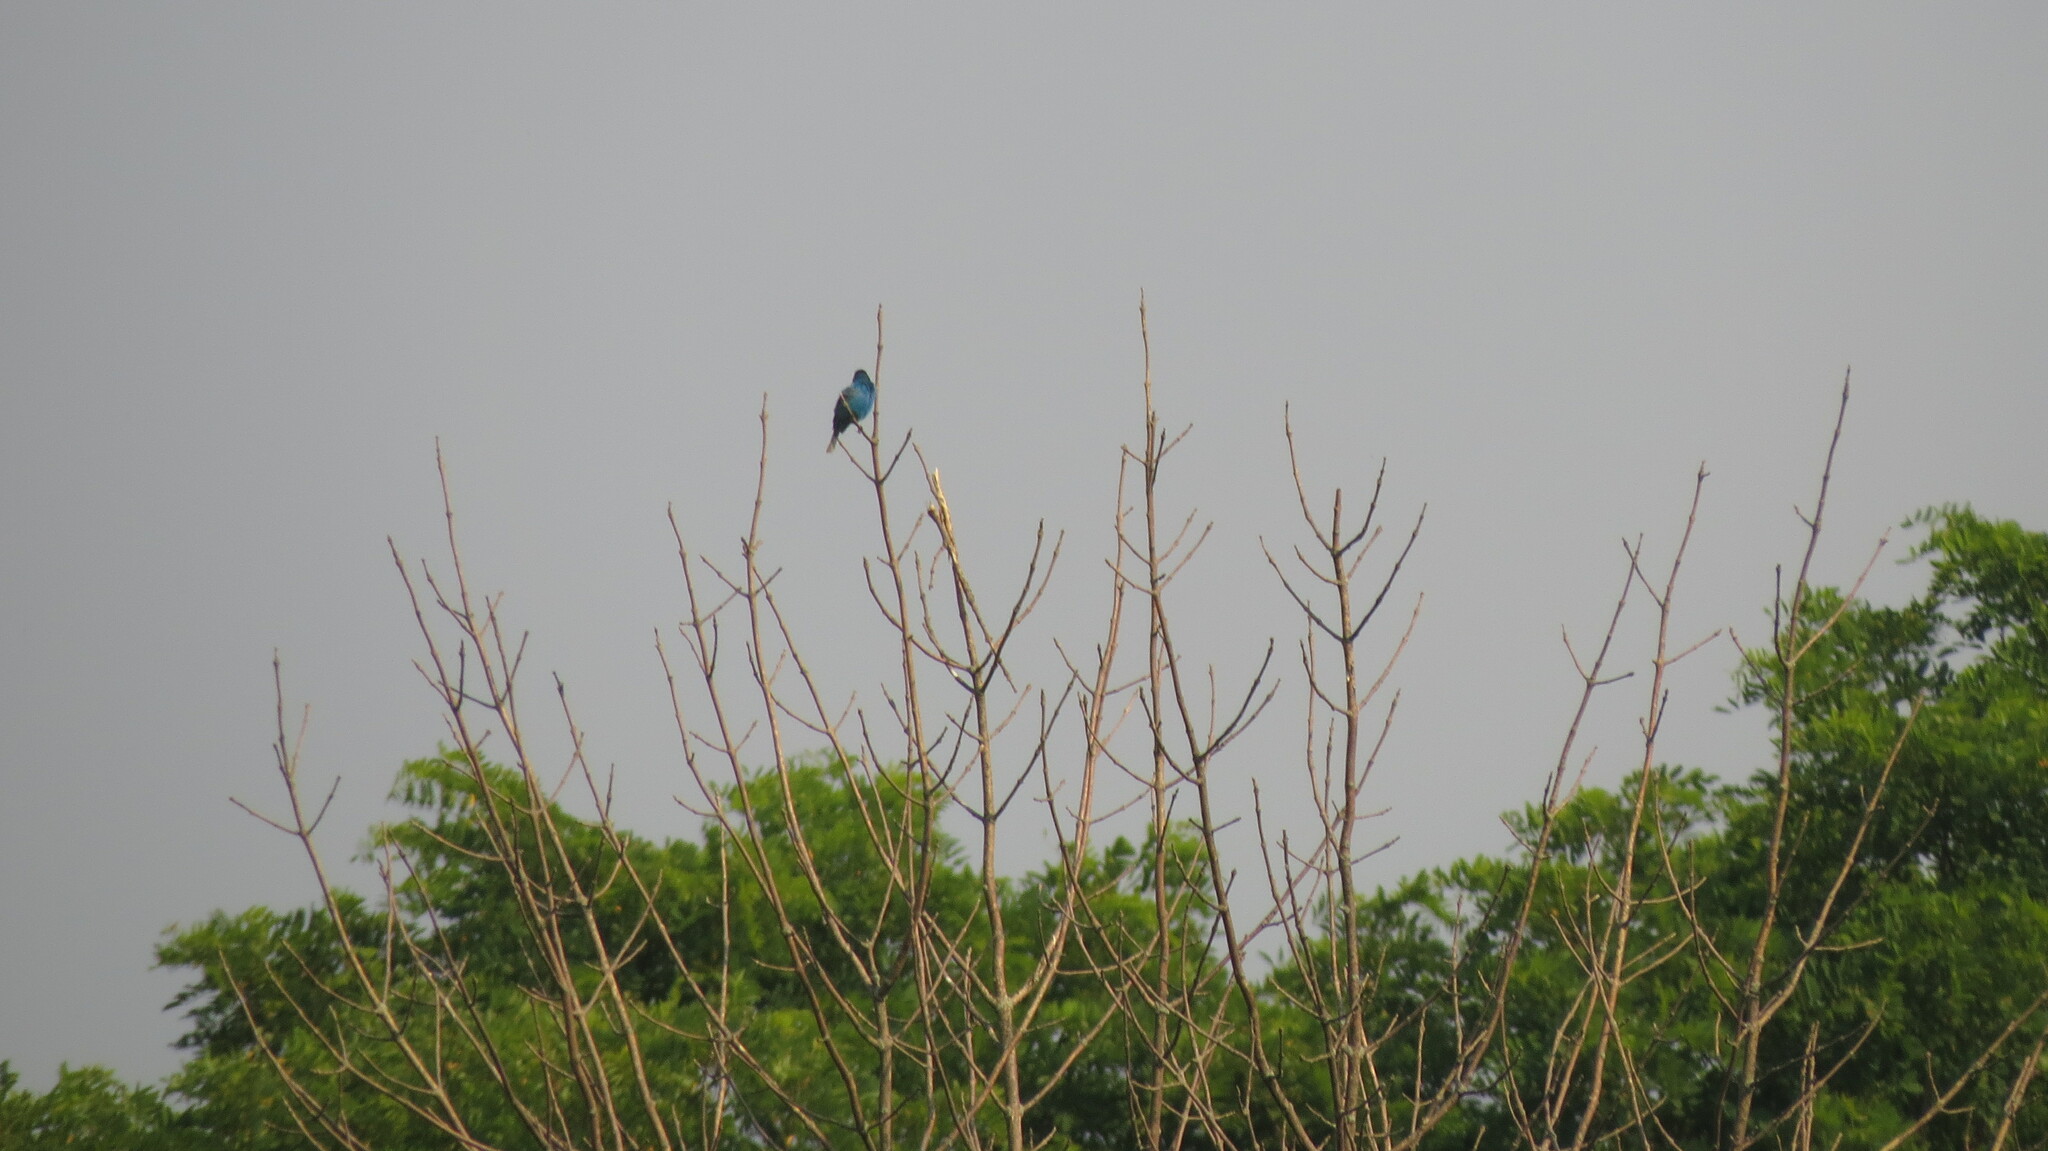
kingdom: Animalia
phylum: Chordata
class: Aves
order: Passeriformes
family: Cardinalidae
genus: Passerina
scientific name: Passerina cyanea
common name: Indigo bunting
